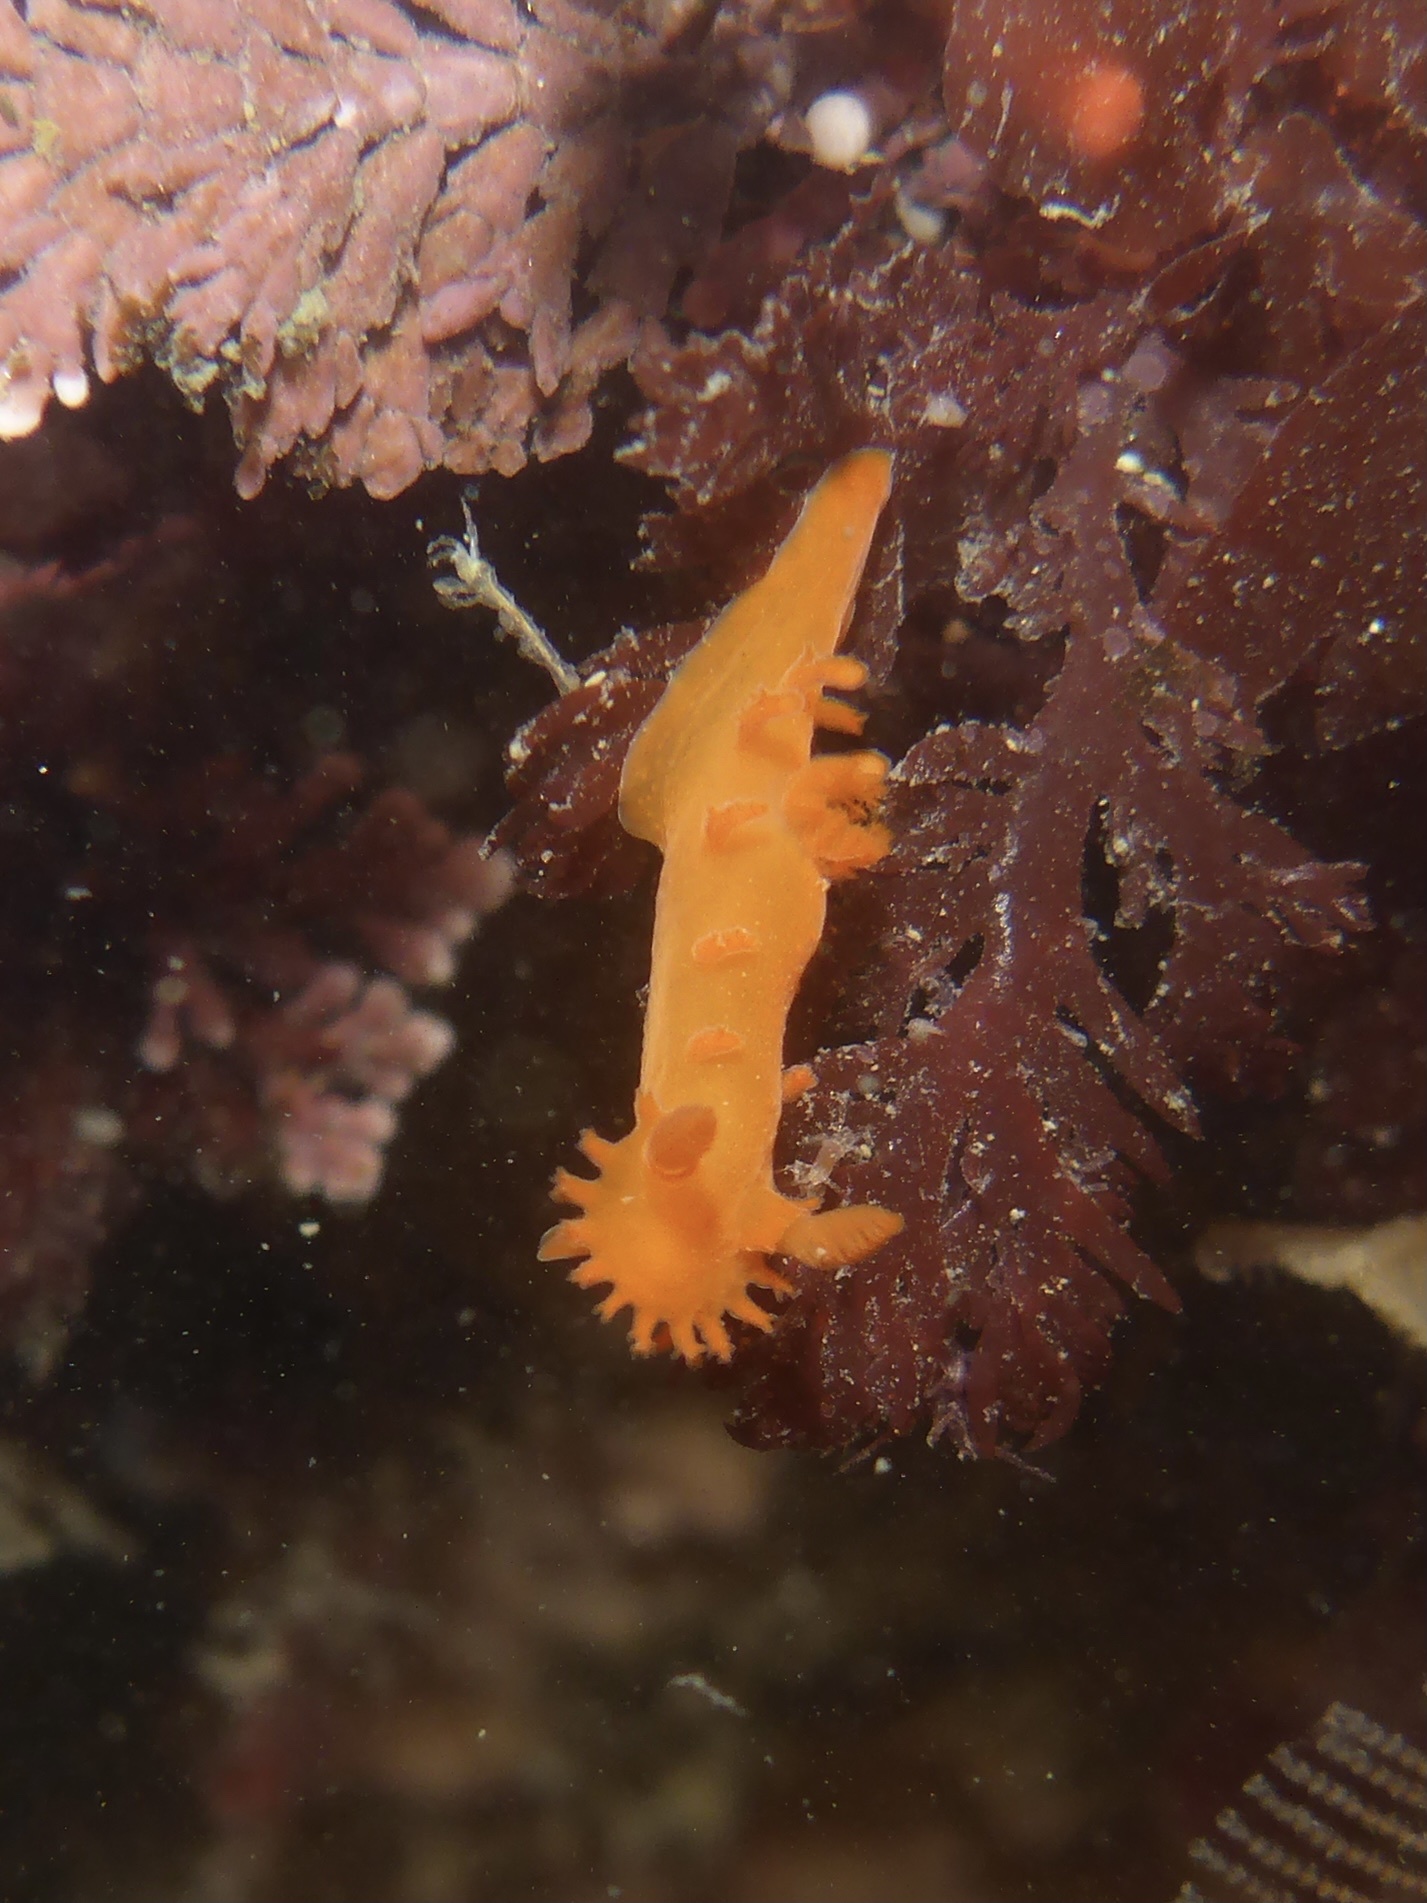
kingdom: Animalia
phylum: Mollusca
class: Gastropoda
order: Nudibranchia
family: Polyceridae
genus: Triopha
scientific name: Triopha maculata
